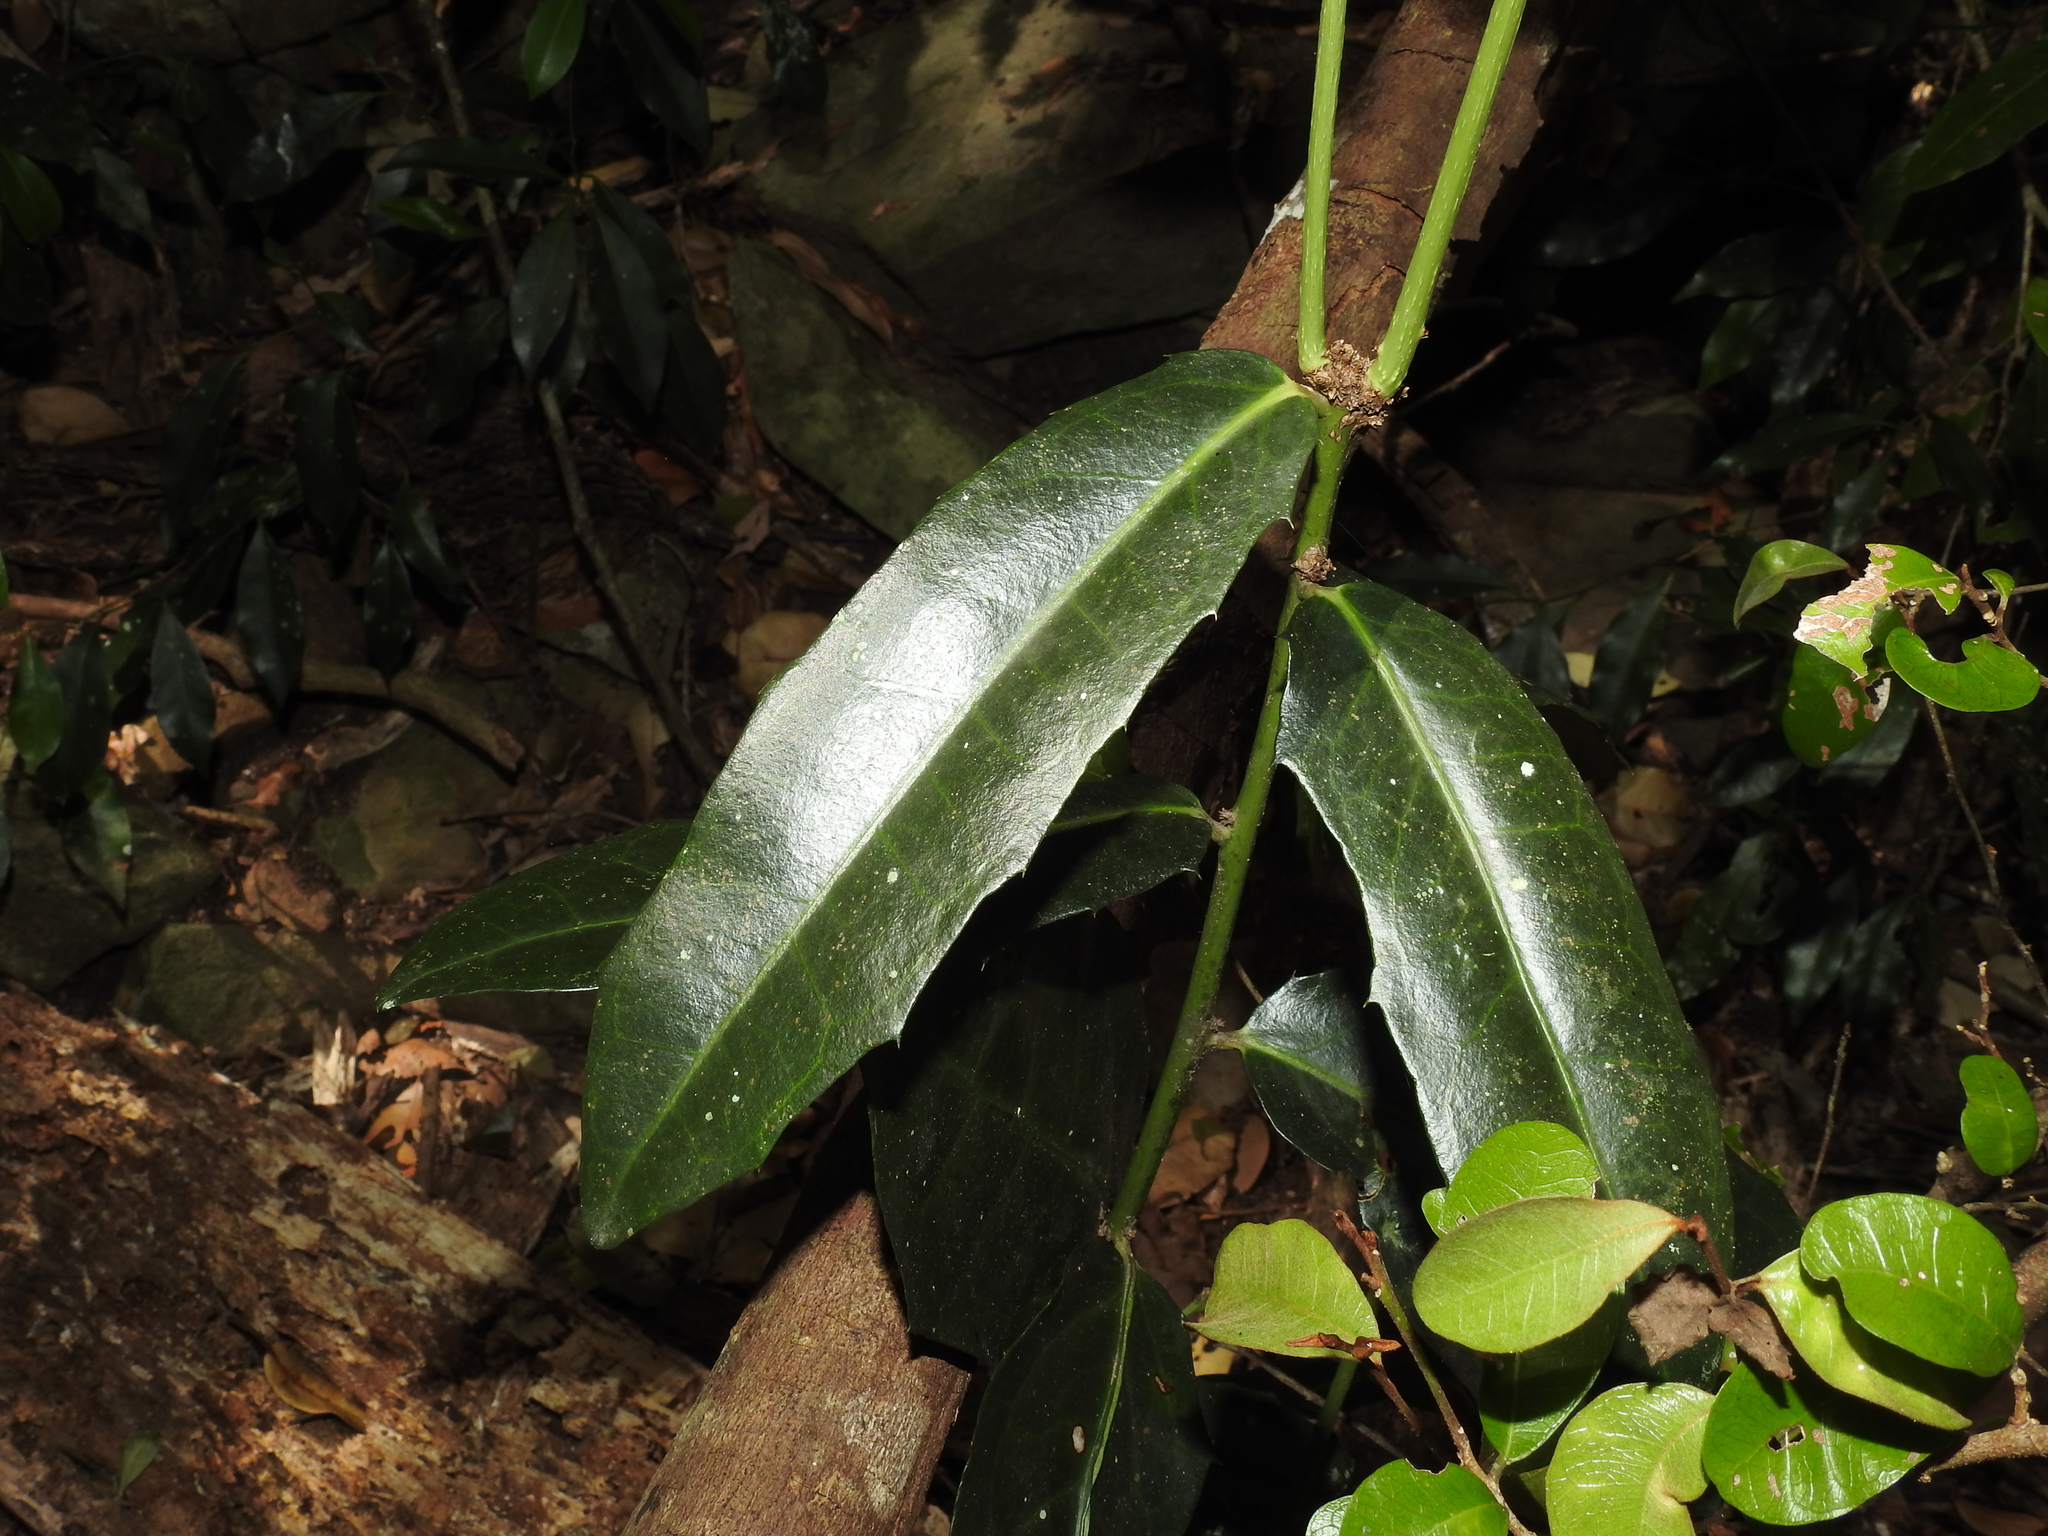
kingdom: Plantae
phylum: Tracheophyta
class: Magnoliopsida
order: Laurales
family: Monimiaceae
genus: Wilkiea
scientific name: Wilkiea macrophylla
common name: Large-leaved wilkiea
